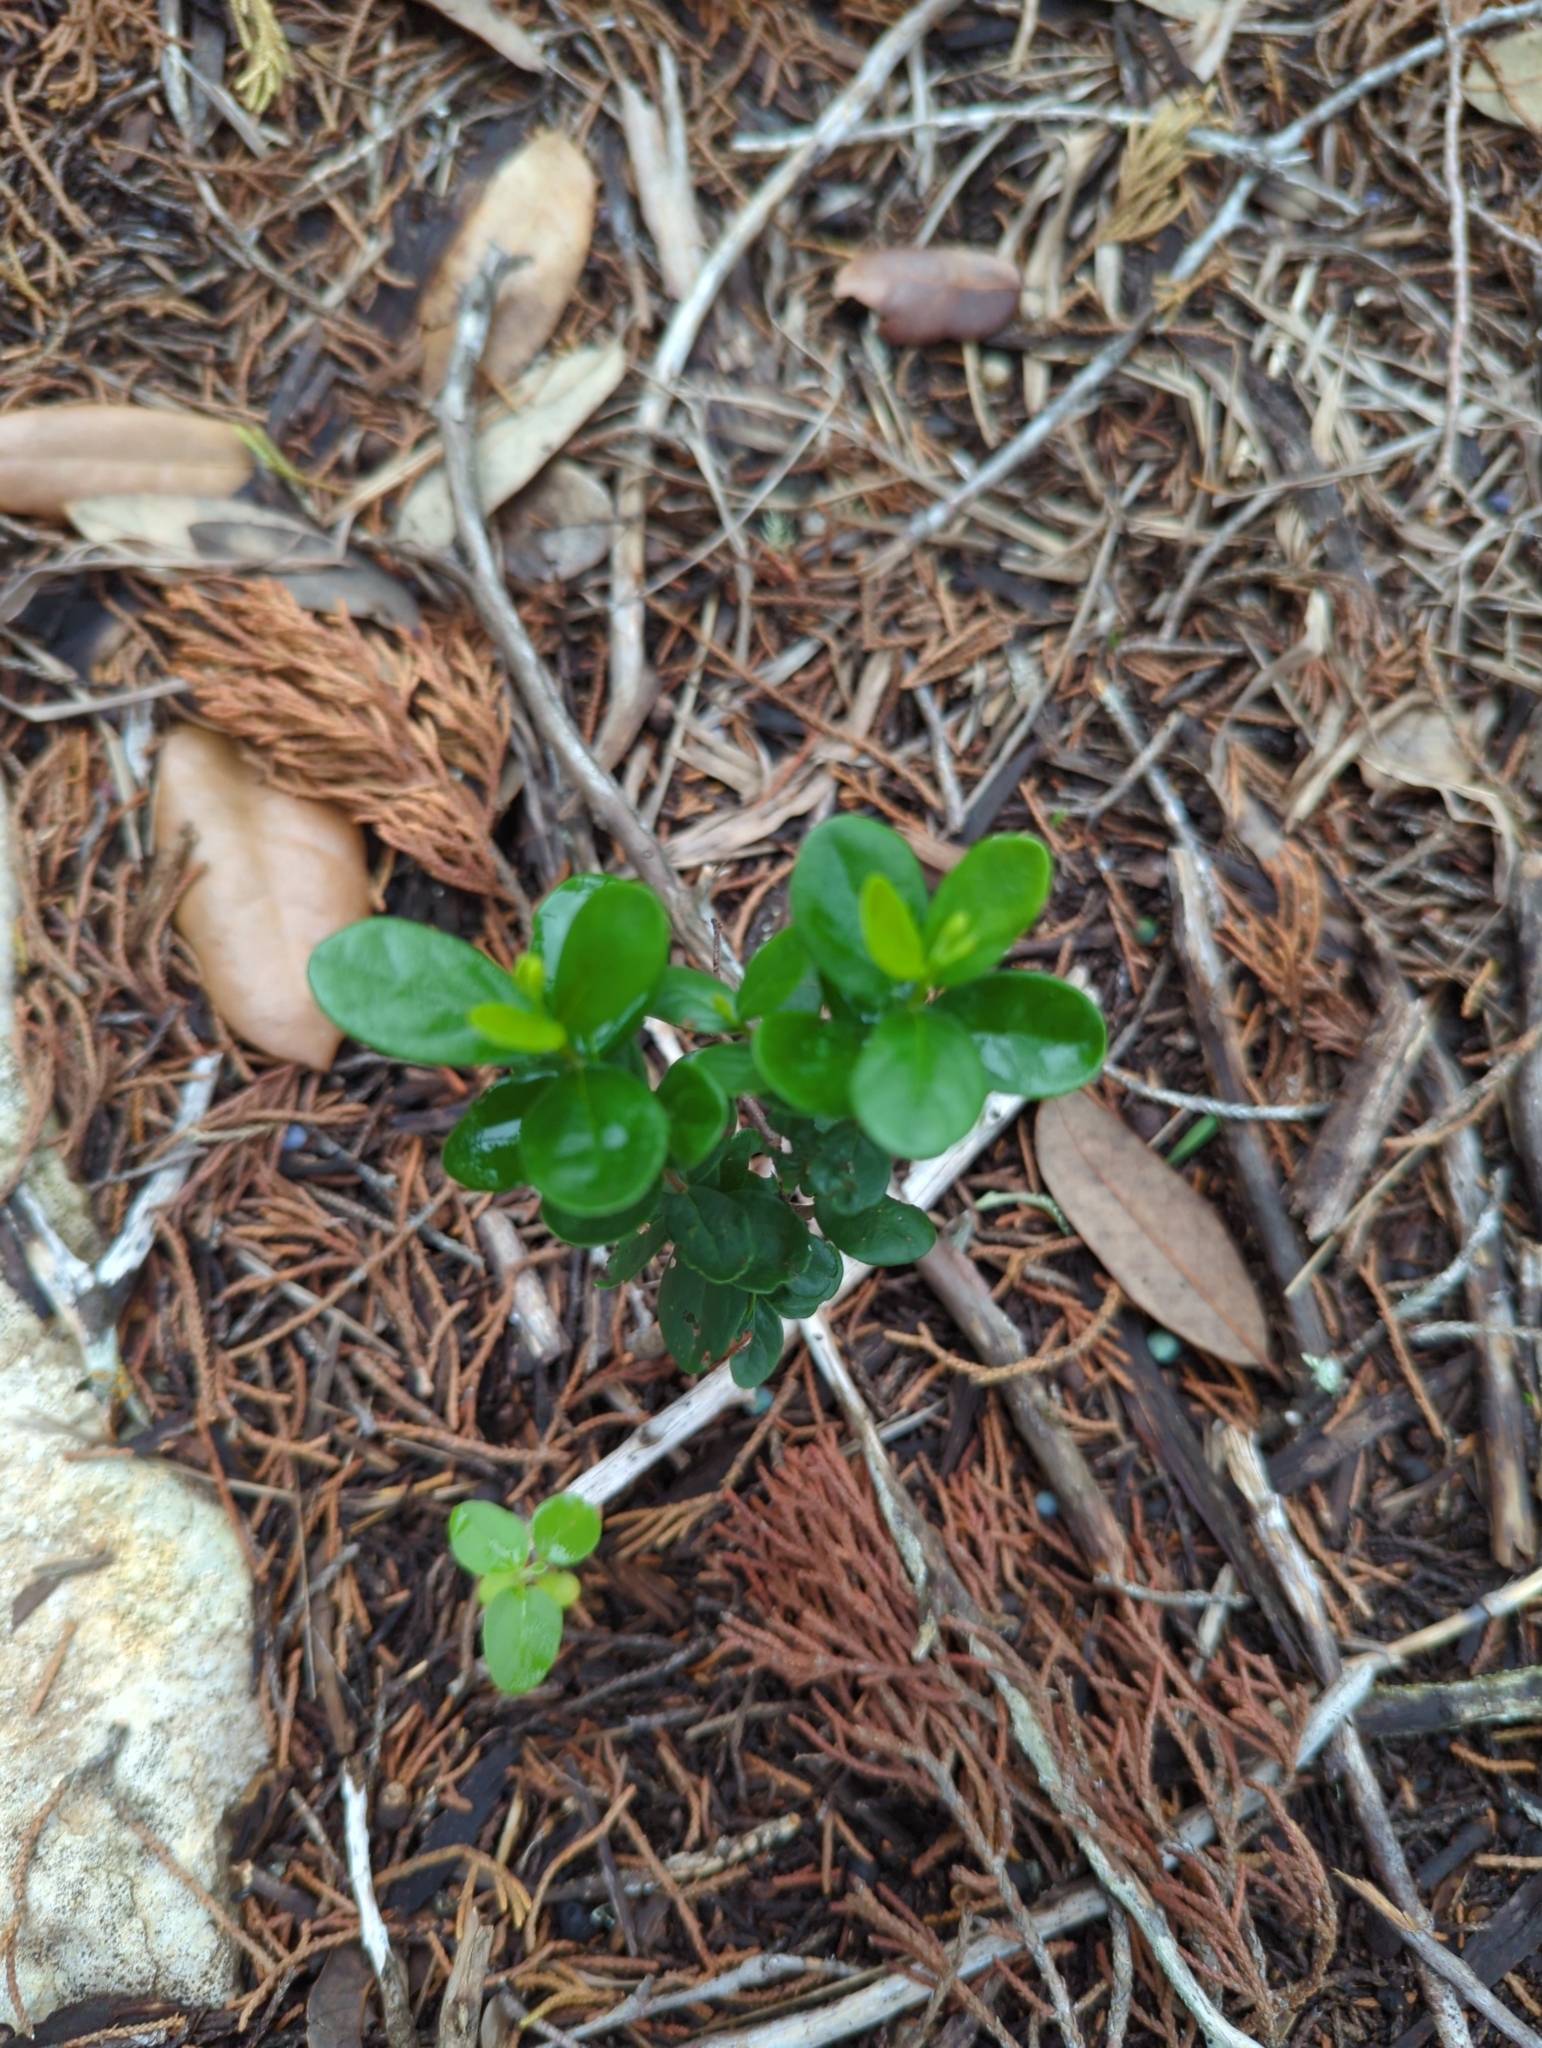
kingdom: Plantae
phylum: Tracheophyta
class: Magnoliopsida
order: Ericales
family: Ebenaceae
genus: Diospyros
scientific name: Diospyros texana
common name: Texas persimmon
